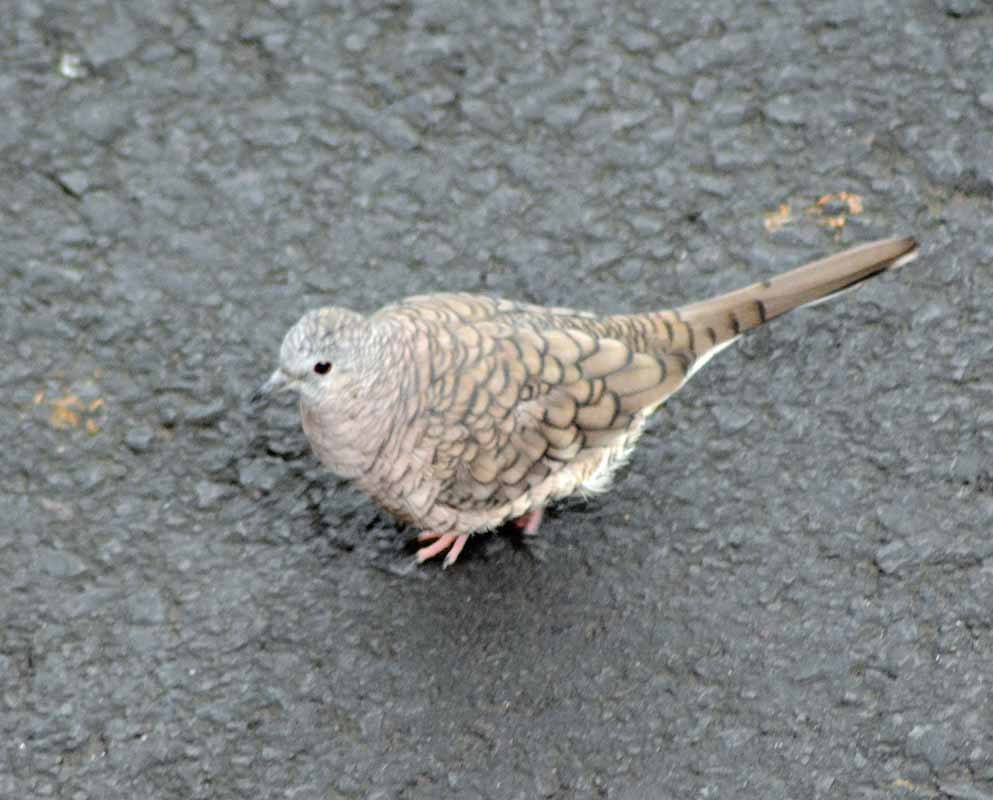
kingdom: Animalia
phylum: Chordata
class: Aves
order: Columbiformes
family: Columbidae
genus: Columbina
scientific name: Columbina inca
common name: Inca dove
